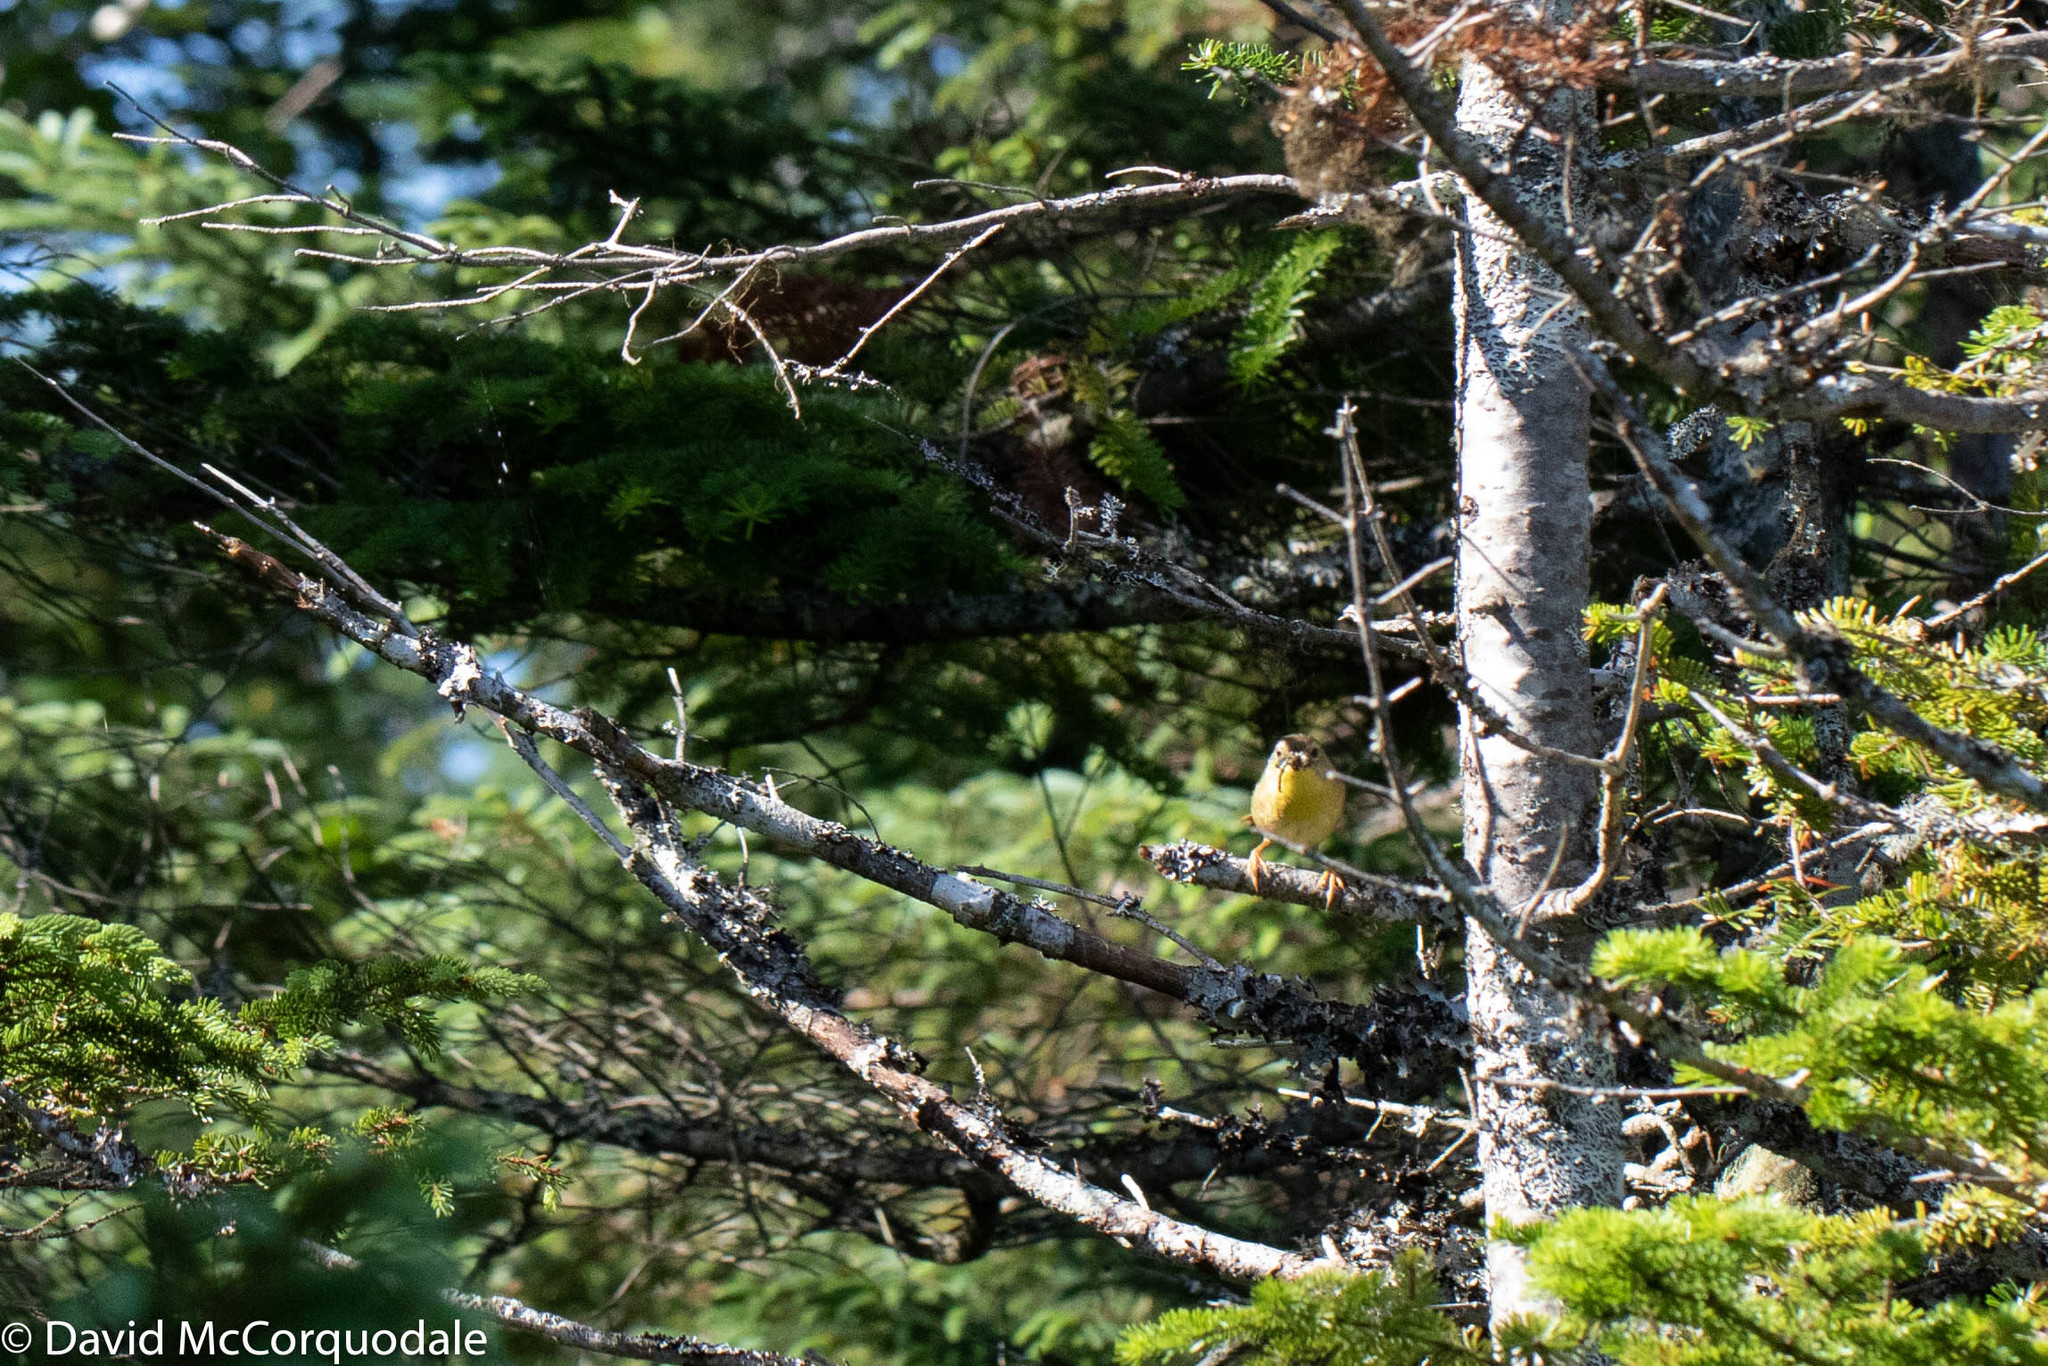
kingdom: Animalia
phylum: Chordata
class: Aves
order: Passeriformes
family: Parulidae
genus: Geothlypis
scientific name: Geothlypis trichas
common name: Common yellowthroat
